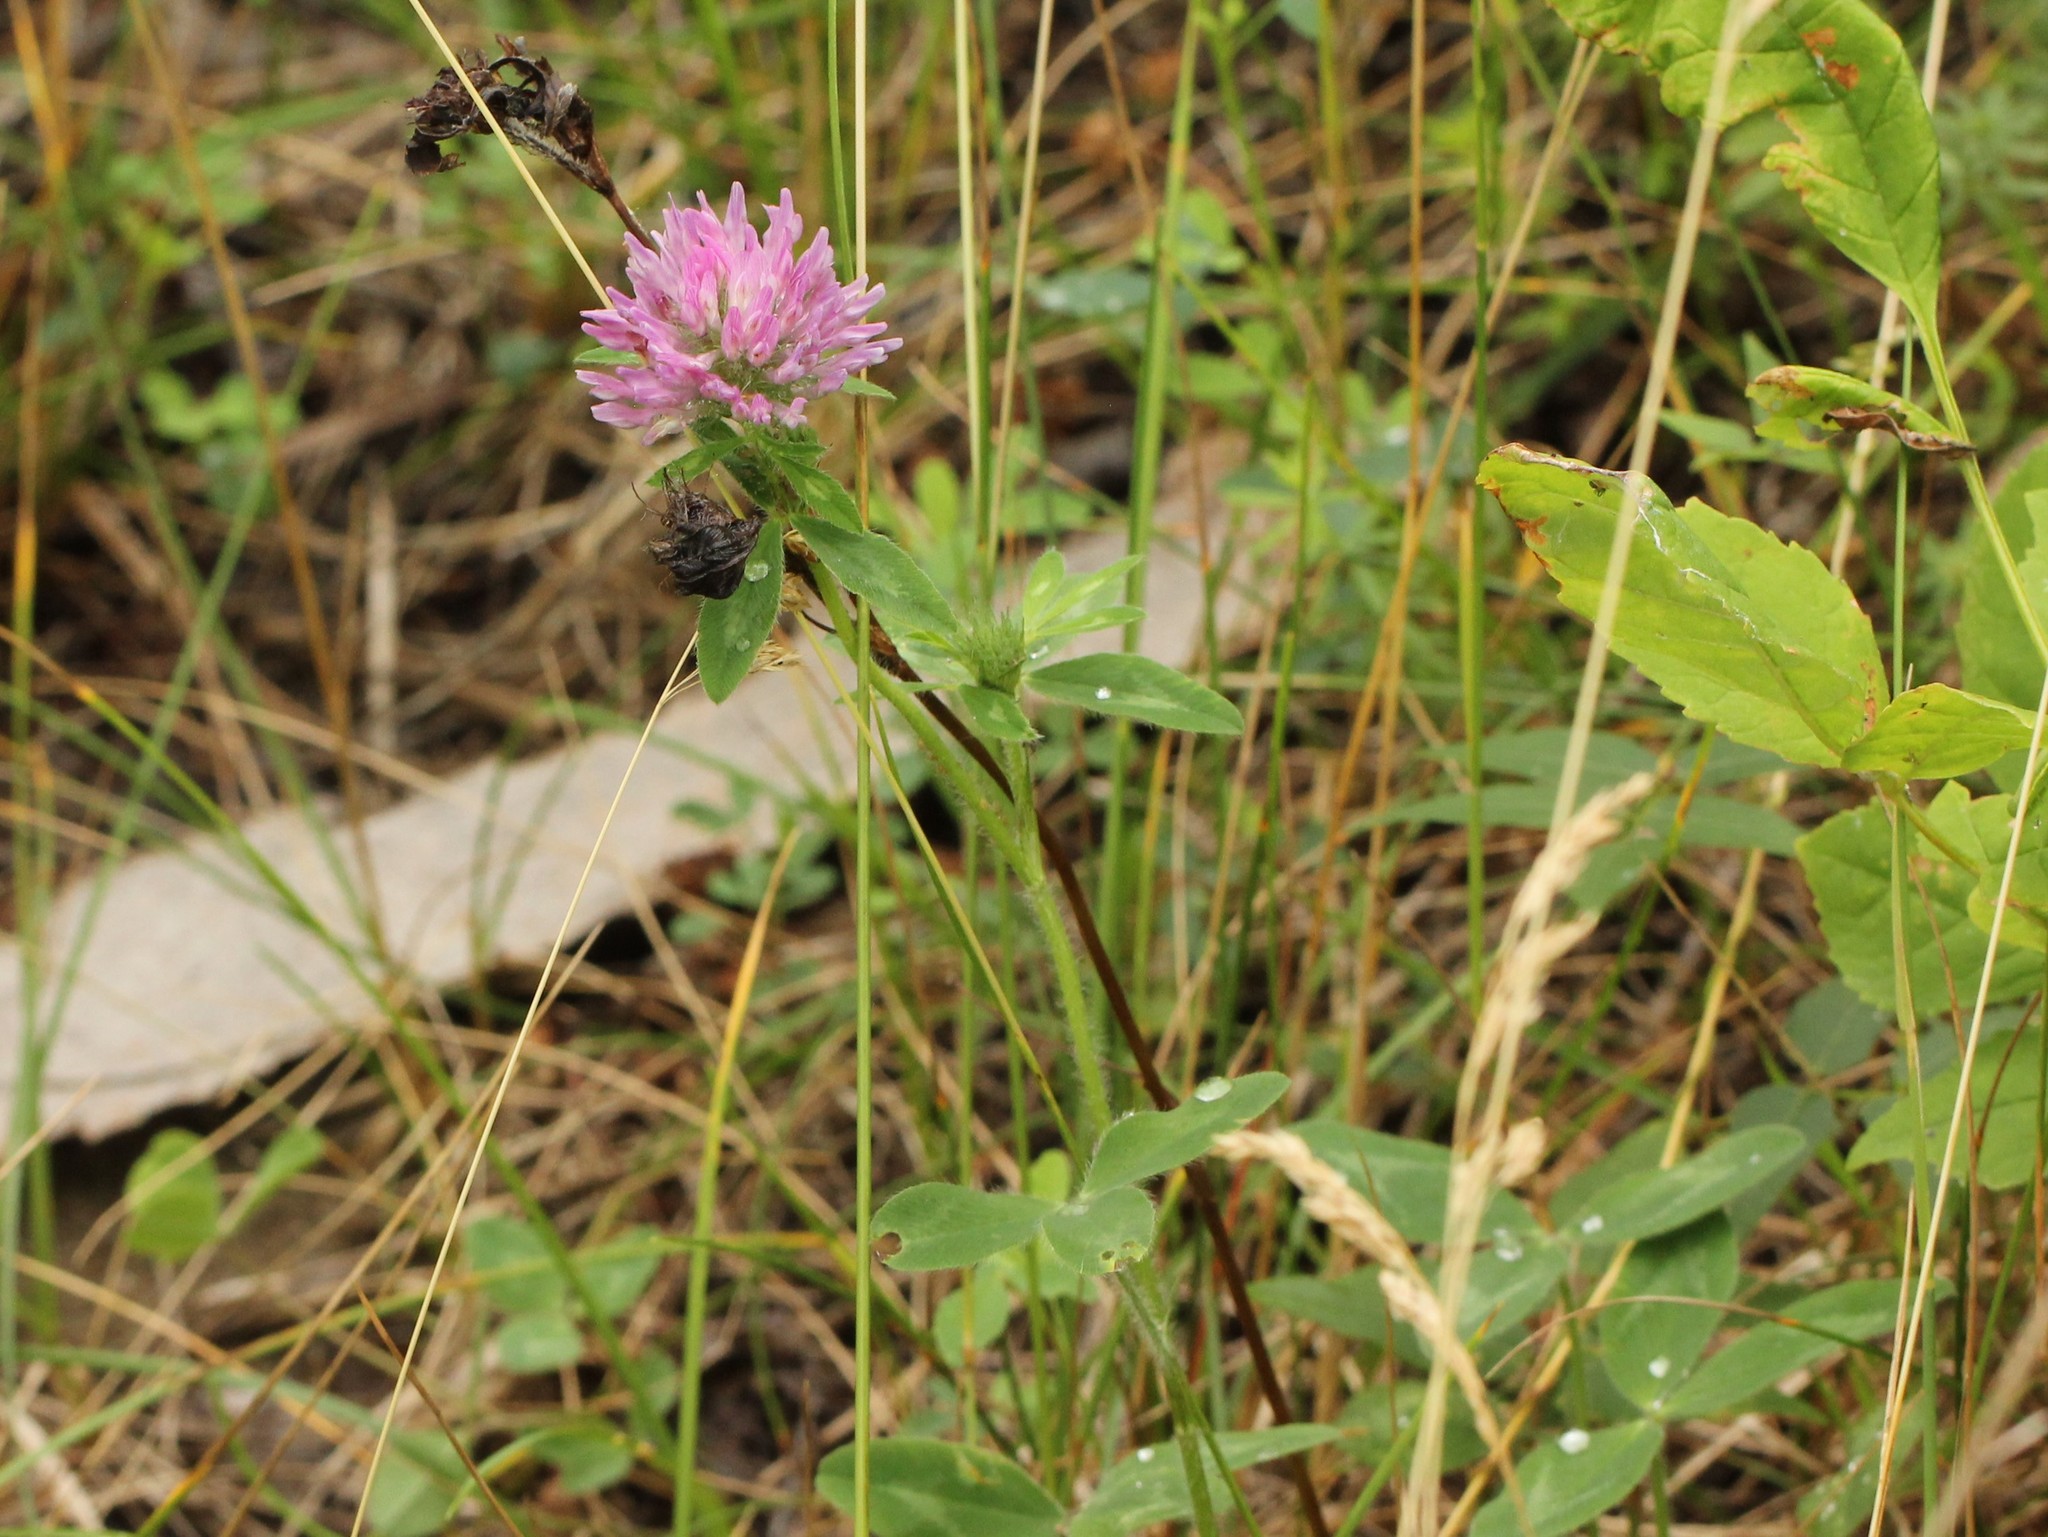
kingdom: Plantae
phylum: Tracheophyta
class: Magnoliopsida
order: Fabales
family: Fabaceae
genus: Trifolium
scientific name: Trifolium pratense
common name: Red clover
